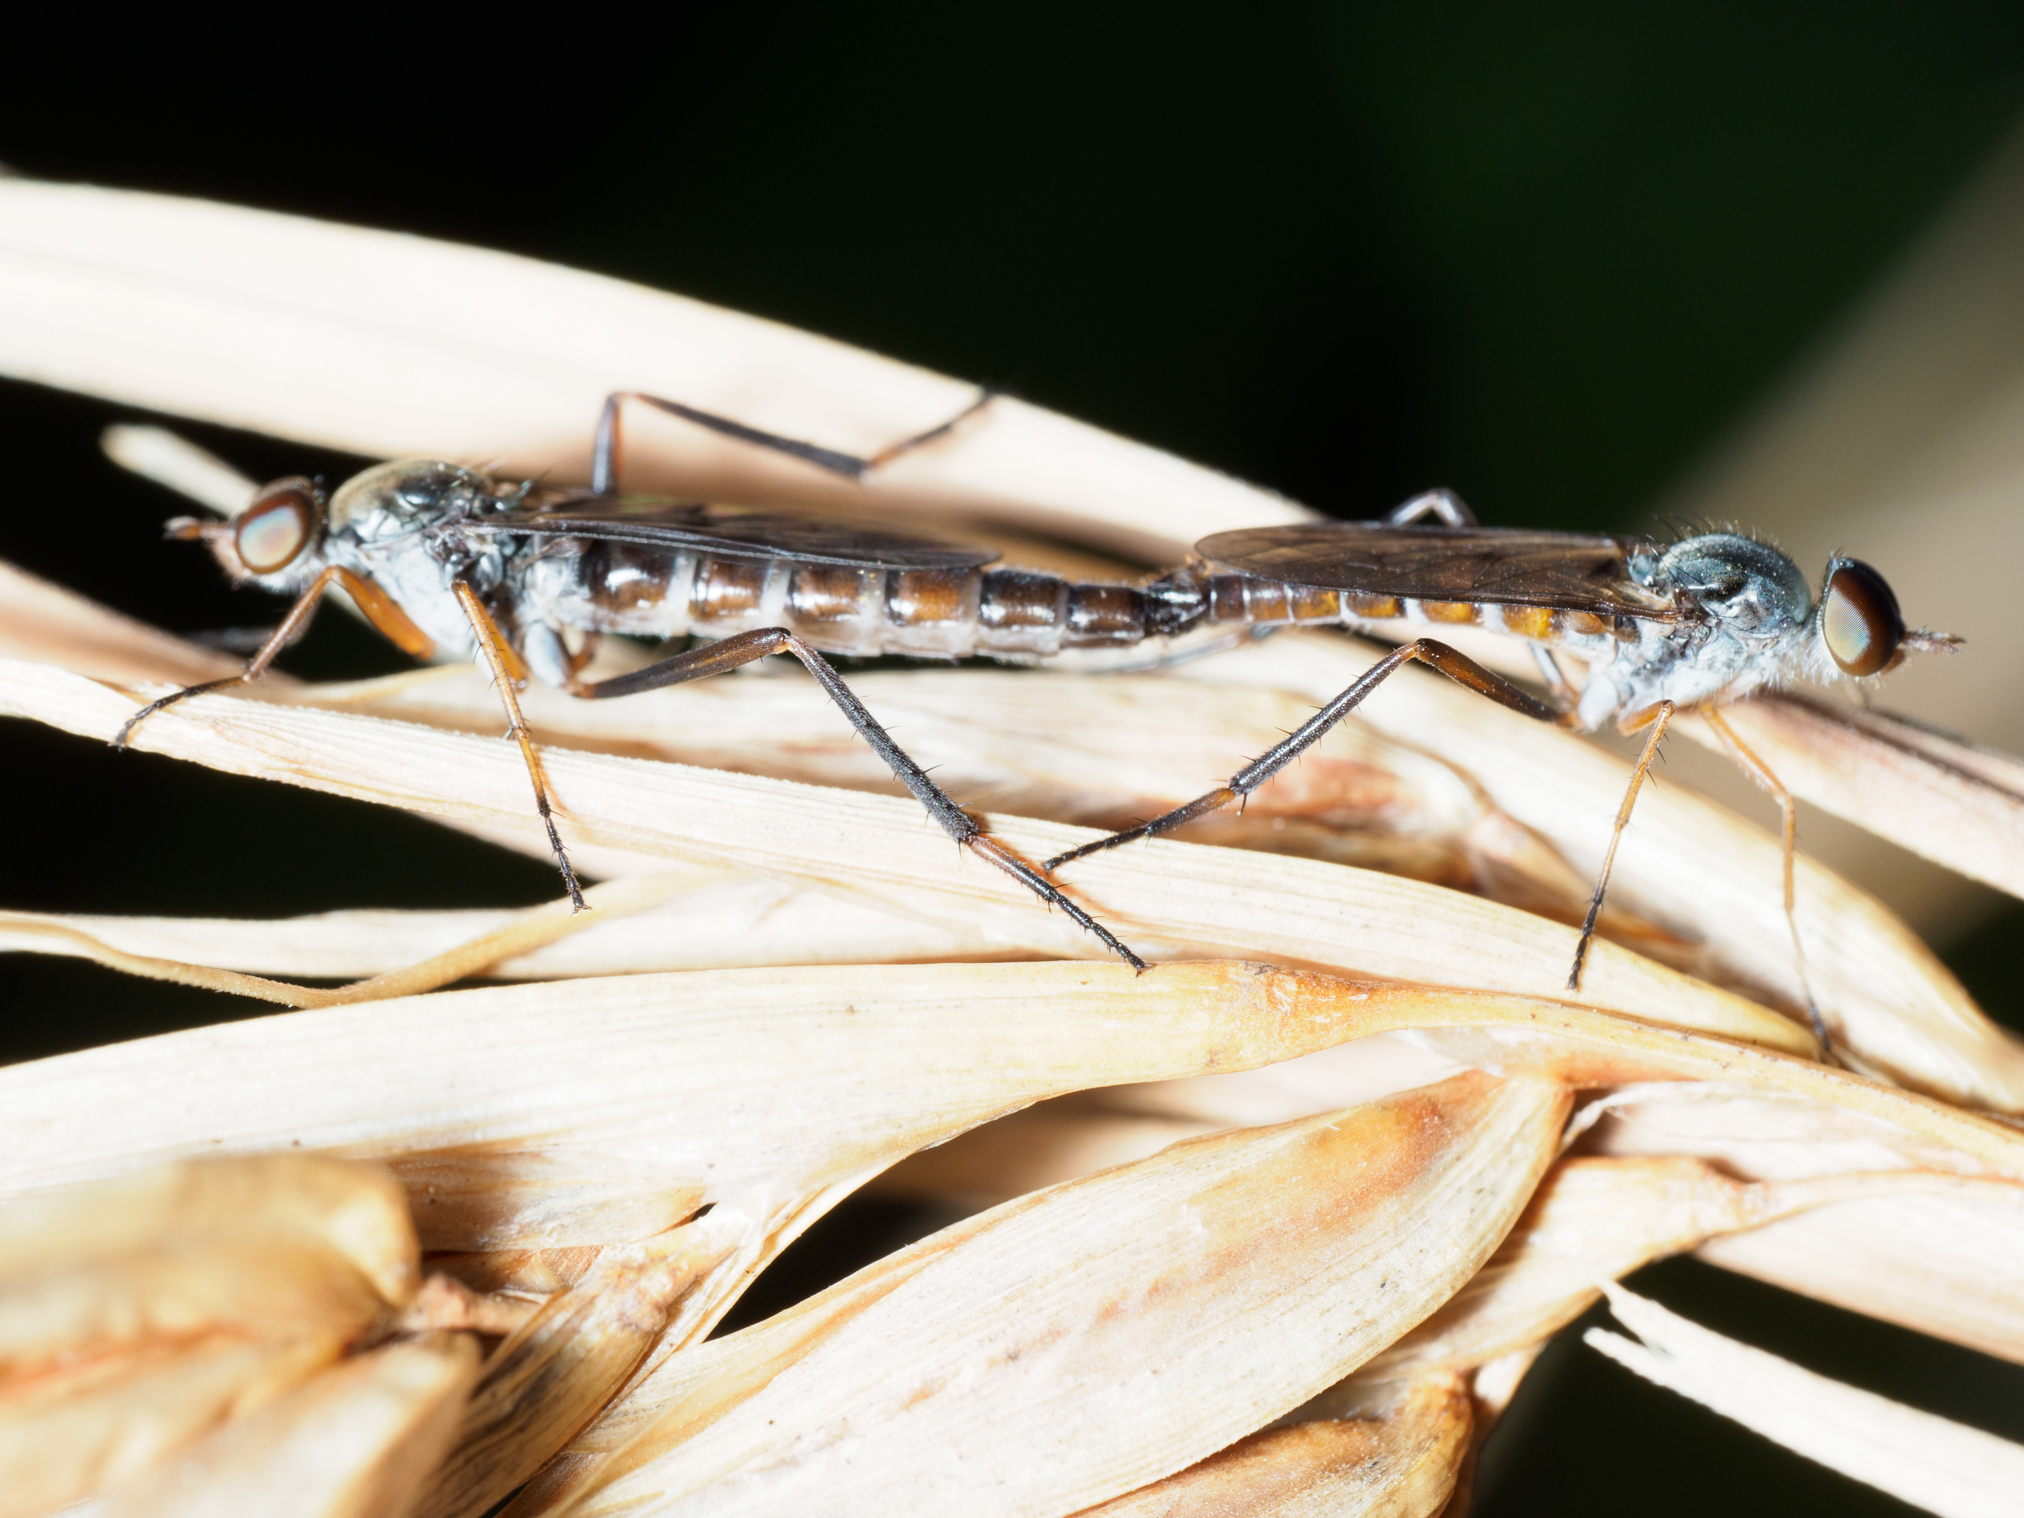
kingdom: Animalia
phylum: Arthropoda
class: Insecta
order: Diptera
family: Therevidae
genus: Taenogerella
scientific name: Taenogerella elizabethae
